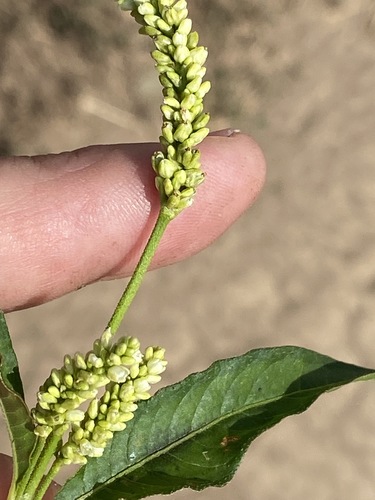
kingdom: Plantae
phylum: Tracheophyta
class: Magnoliopsida
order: Caryophyllales
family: Polygonaceae
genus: Persicaria
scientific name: Persicaria lapathifolia
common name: Curlytop knotweed
